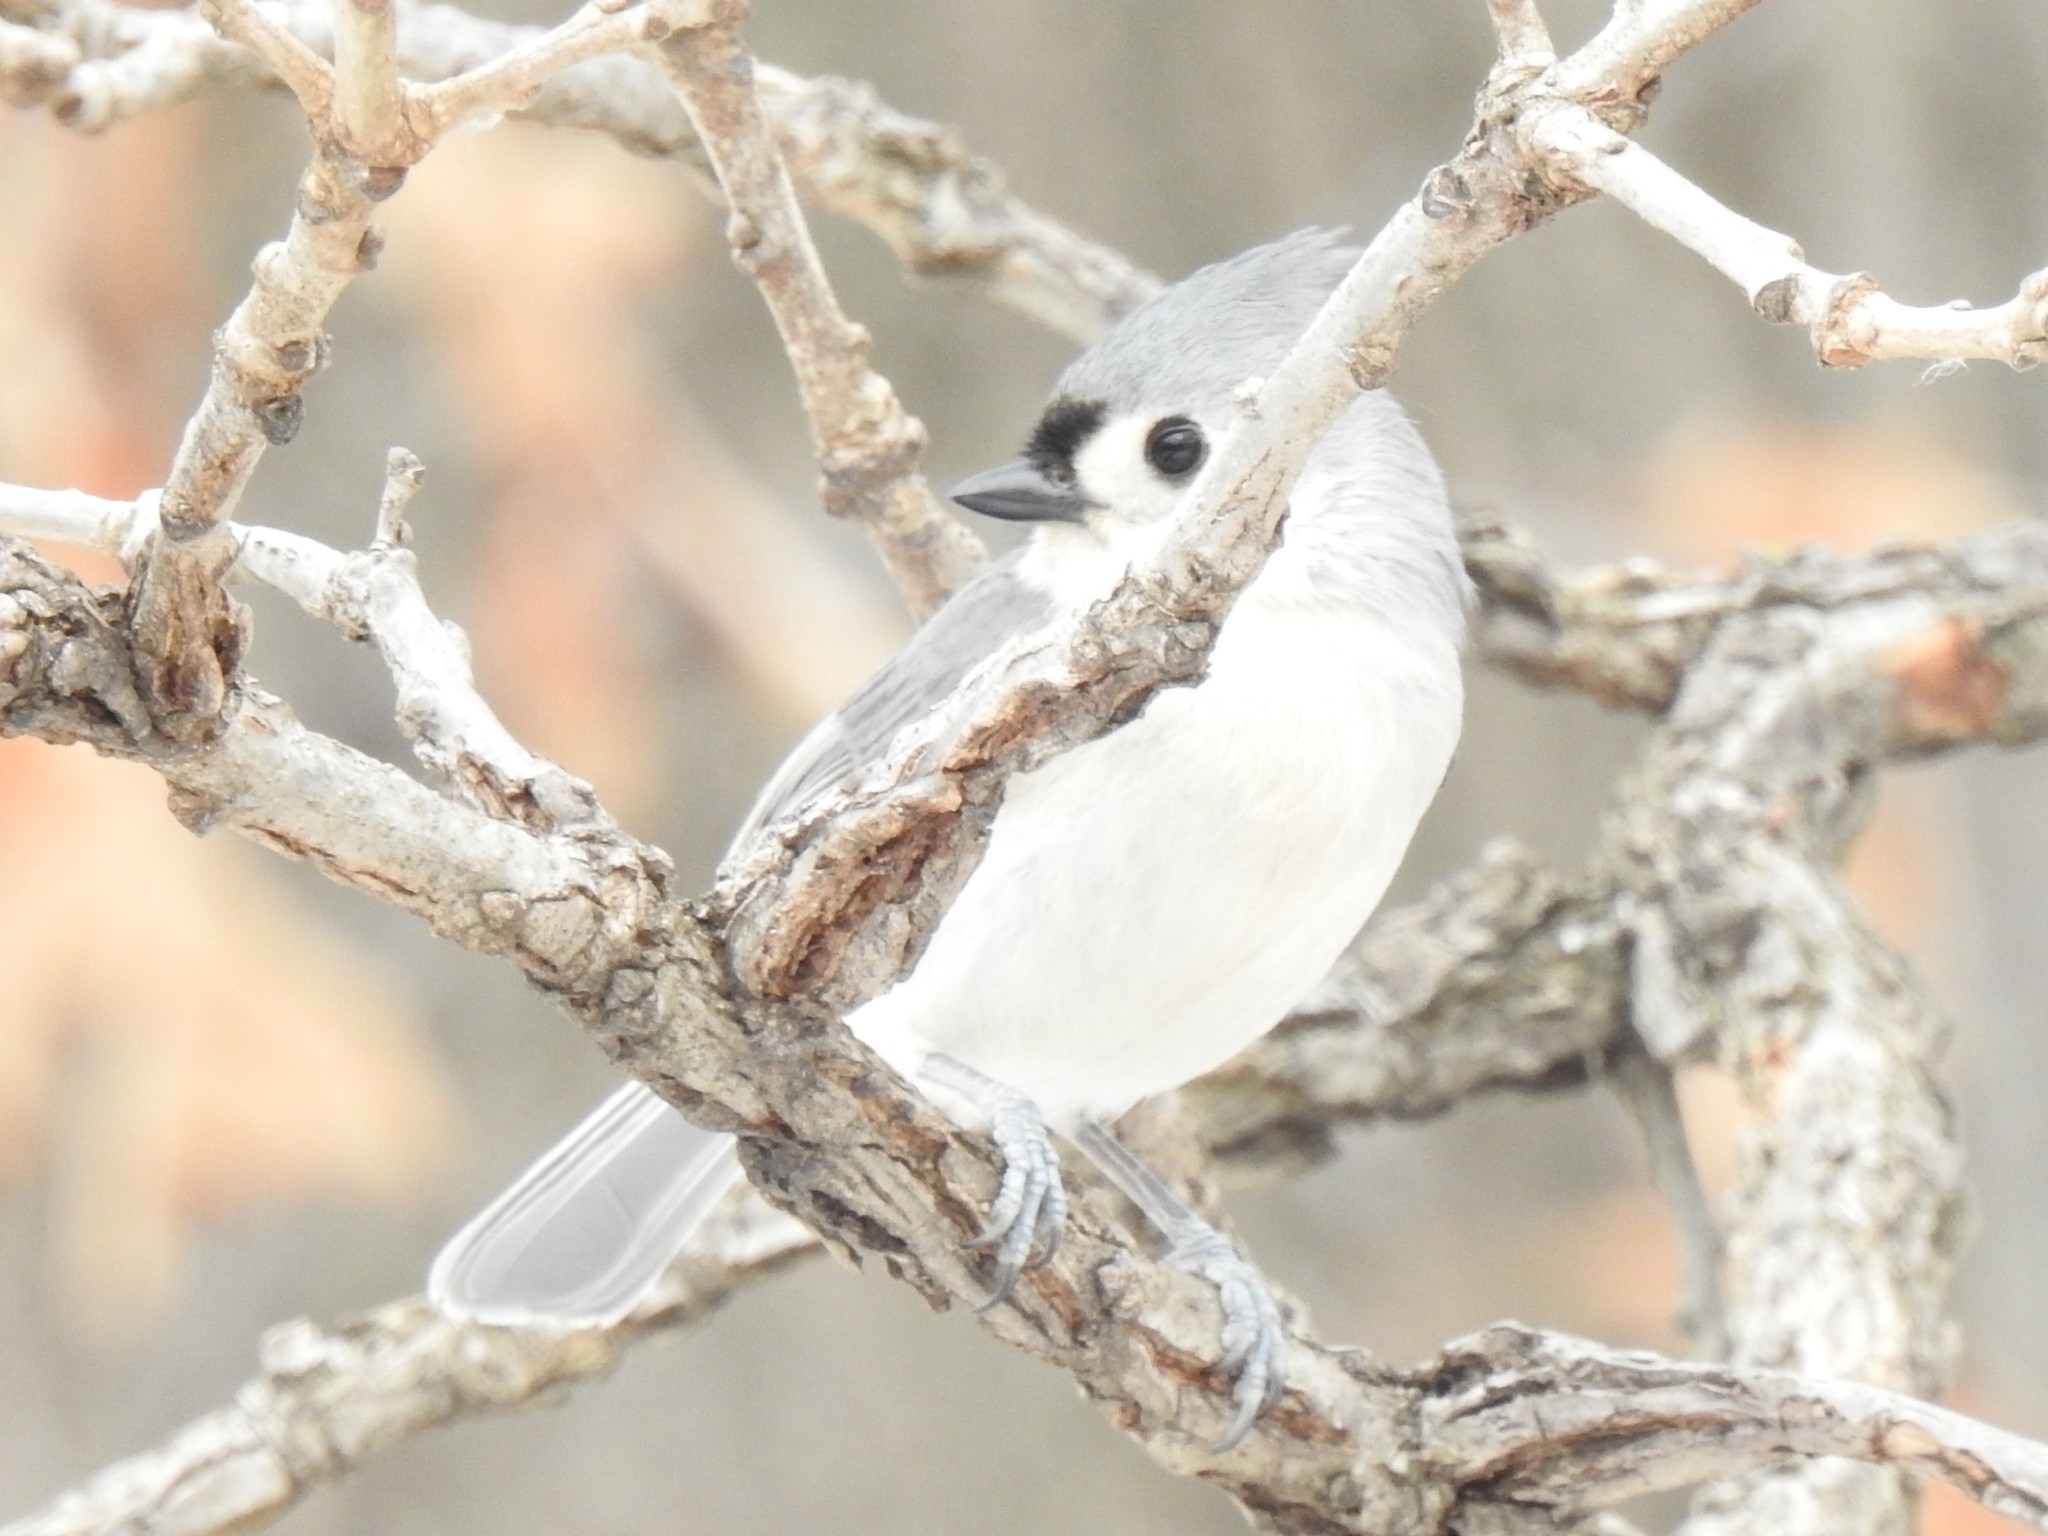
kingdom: Animalia
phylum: Chordata
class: Aves
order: Passeriformes
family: Paridae
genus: Baeolophus
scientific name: Baeolophus bicolor
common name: Tufted titmouse
